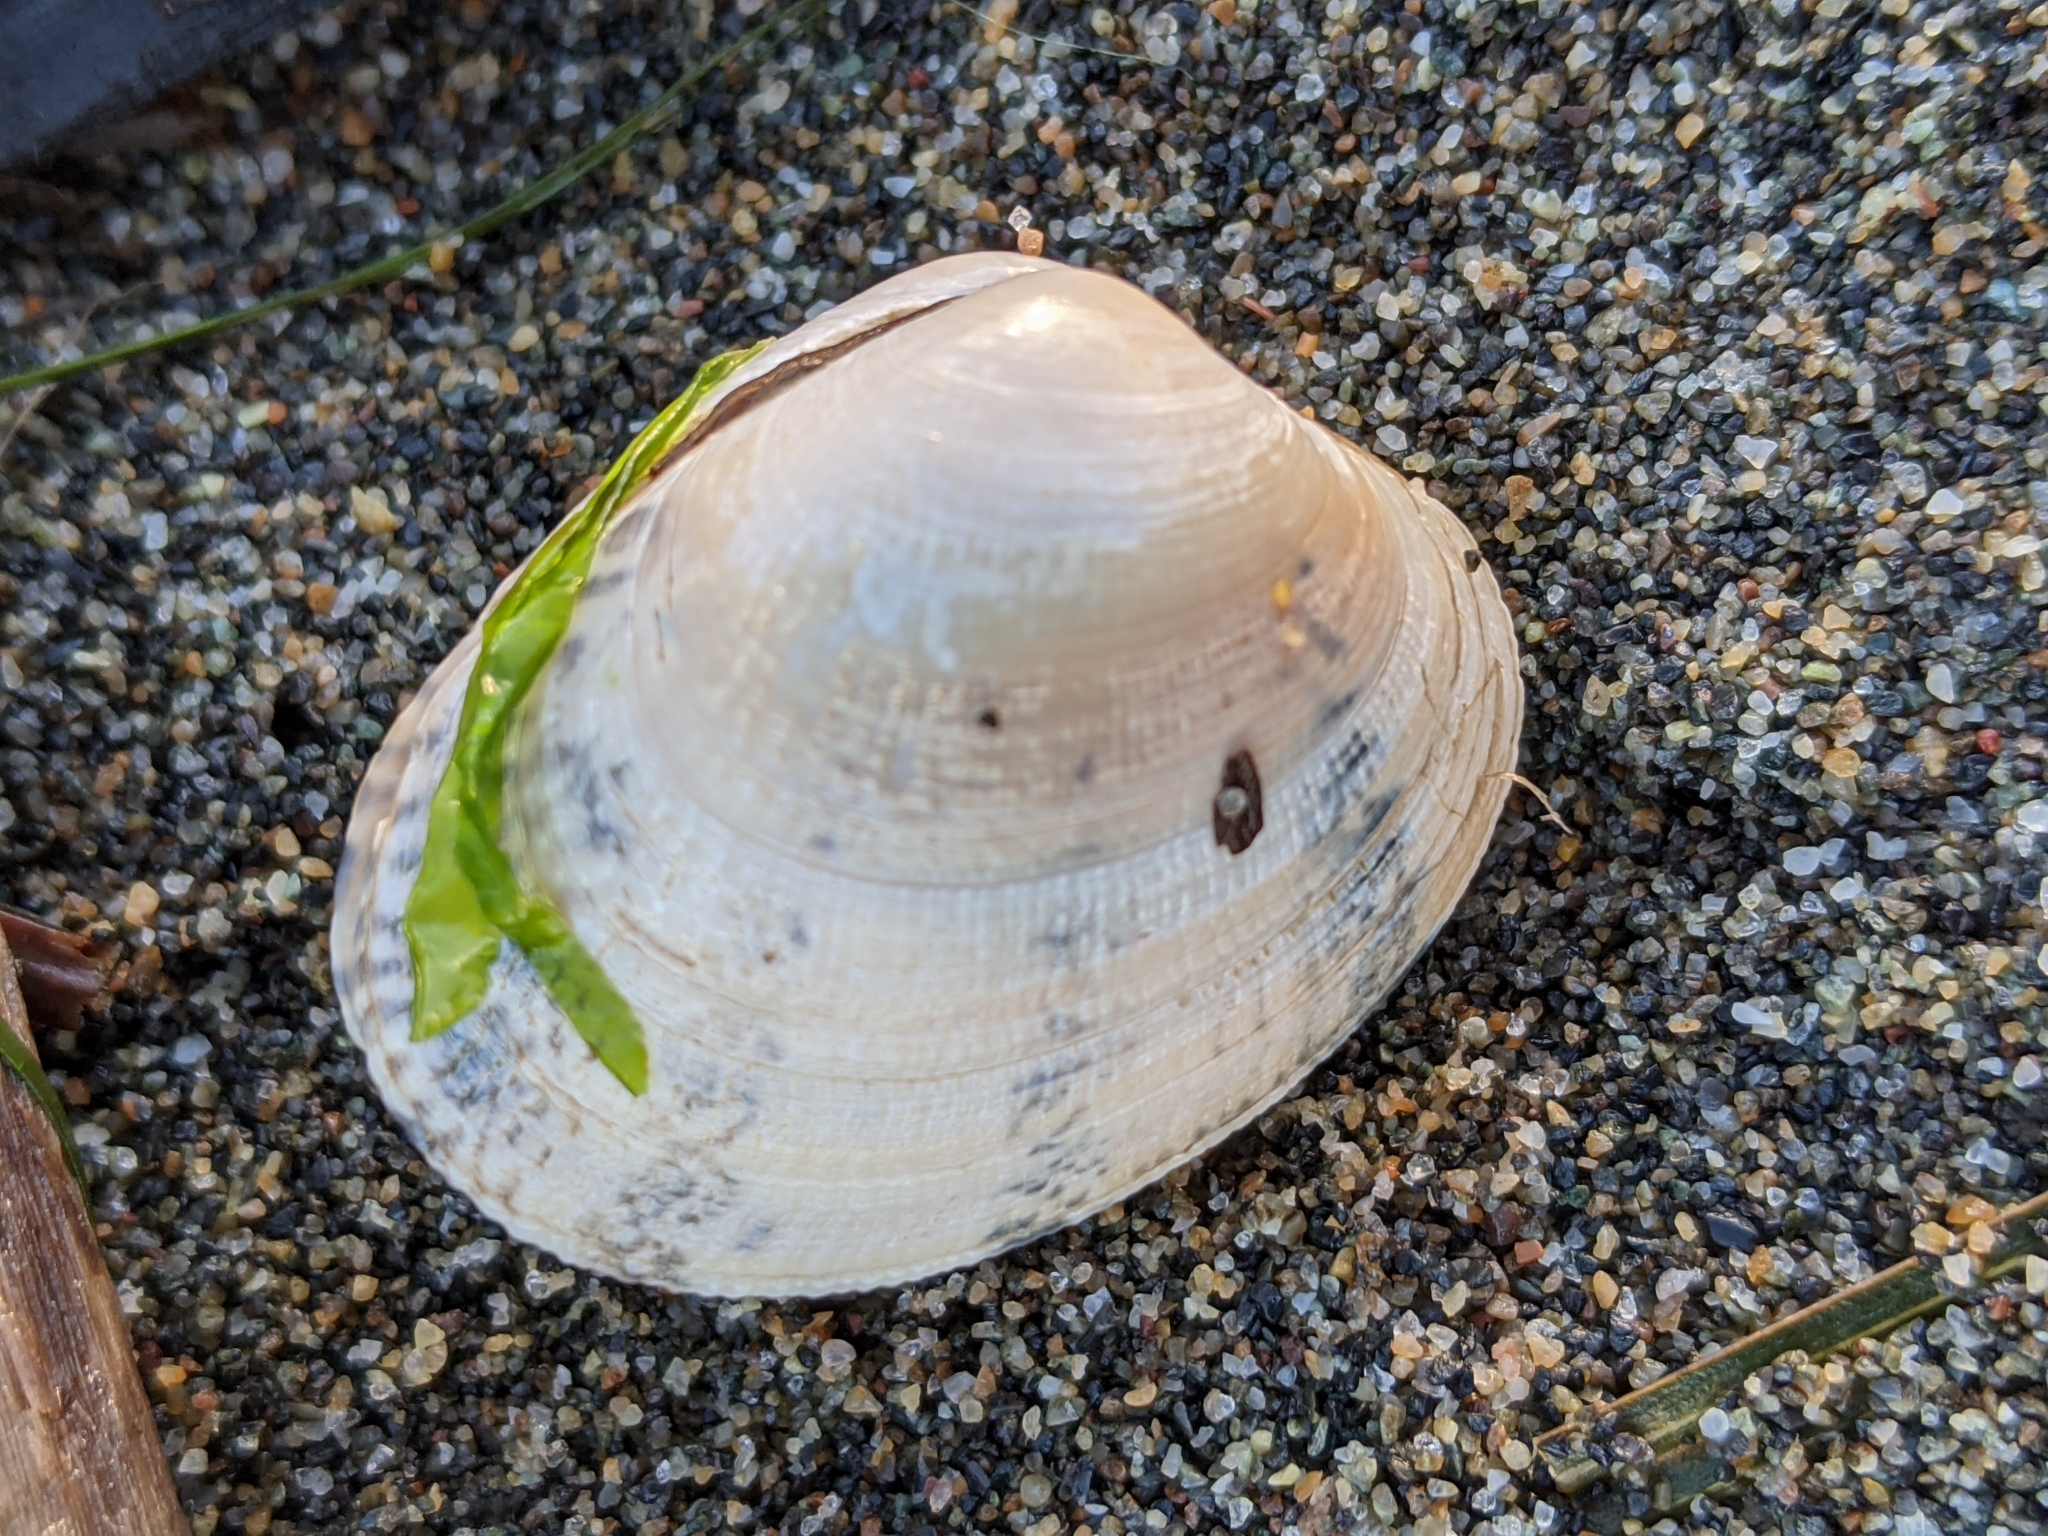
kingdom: Animalia
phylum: Mollusca
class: Bivalvia
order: Venerida
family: Veneridae
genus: Ruditapes
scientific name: Ruditapes philippinarum
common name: Manila clam
